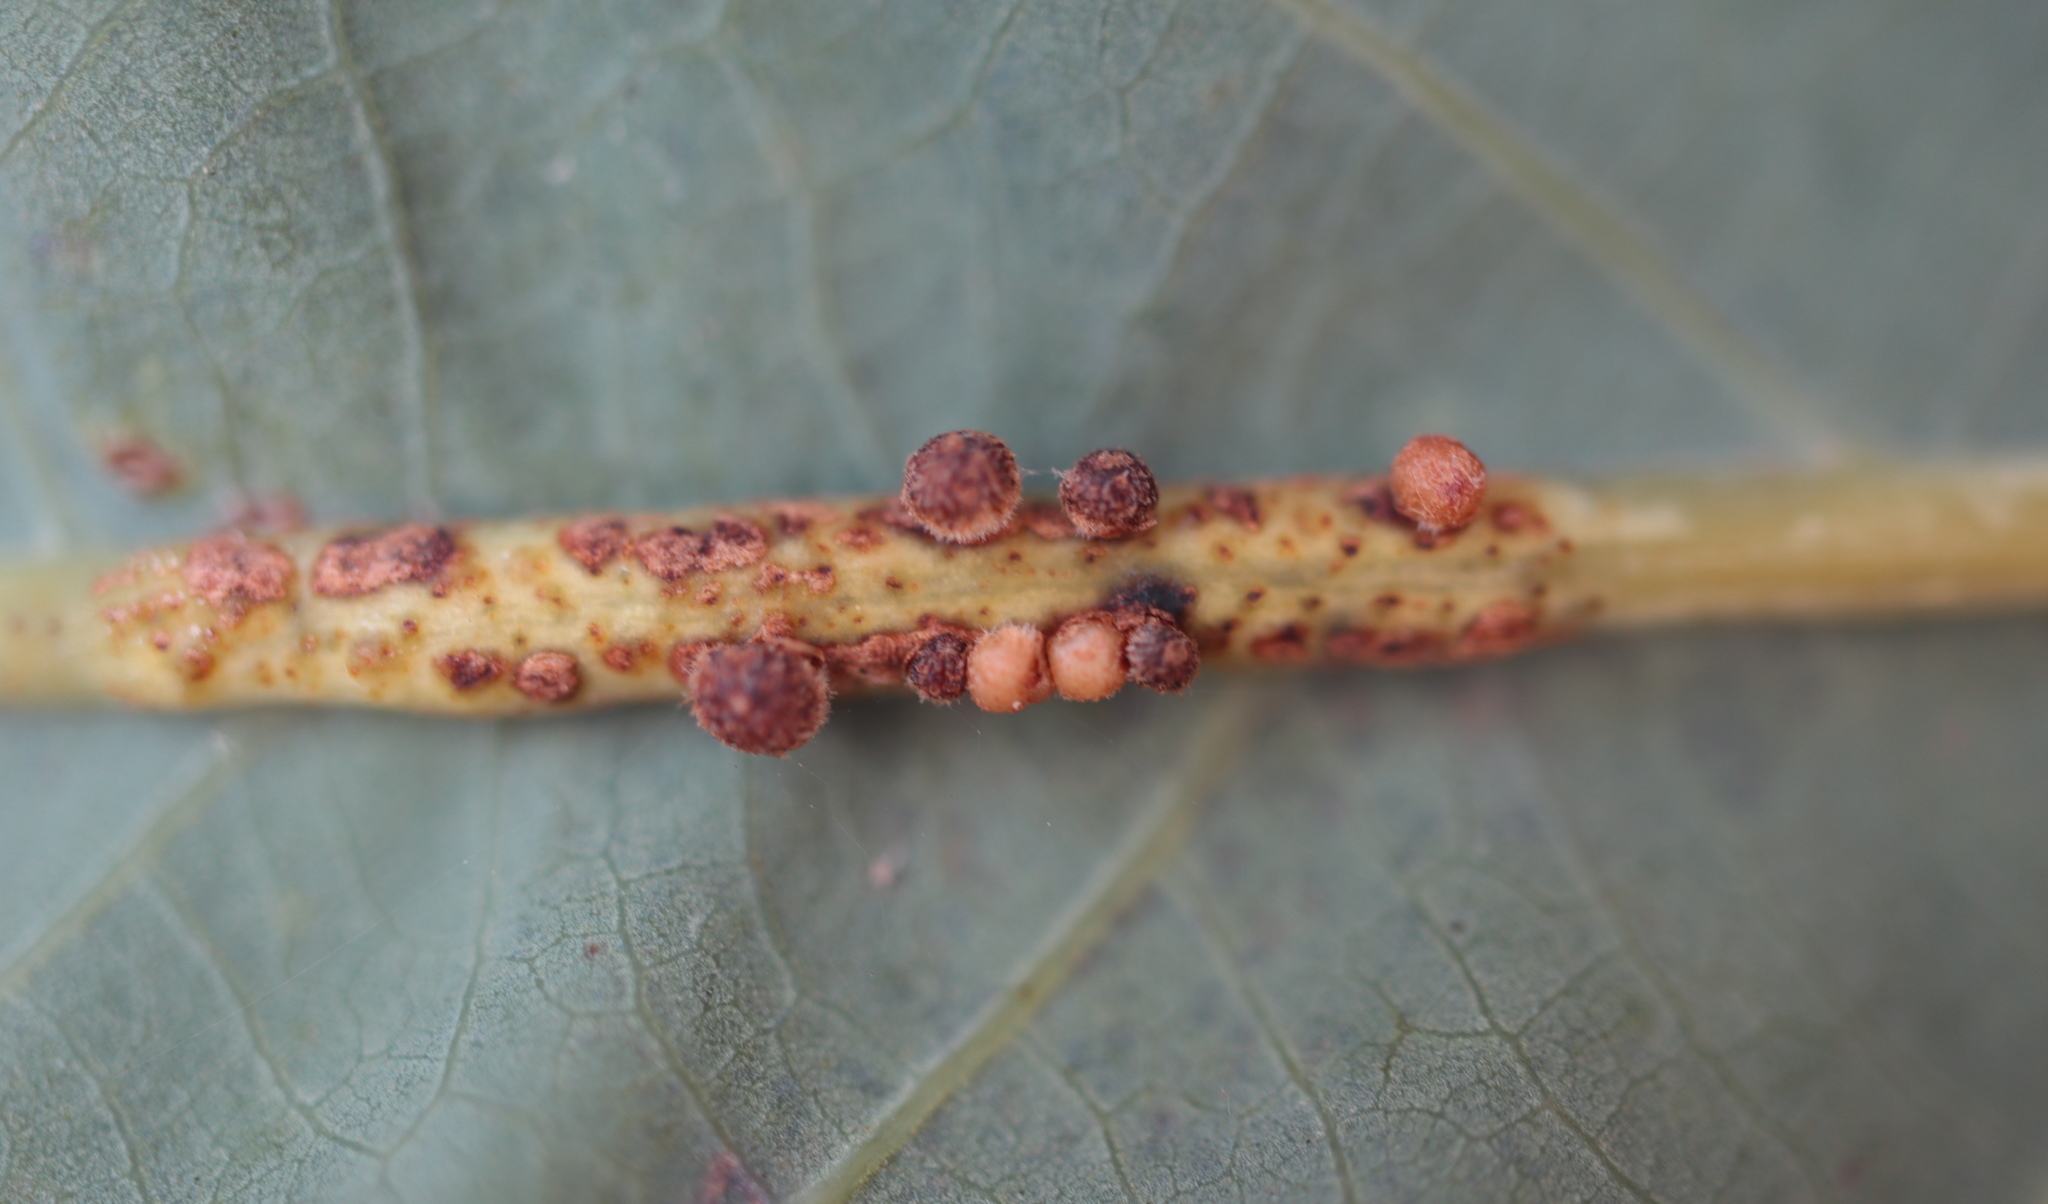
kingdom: Animalia
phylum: Arthropoda
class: Insecta
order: Hymenoptera
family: Cynipidae
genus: Andricus
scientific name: Andricus
